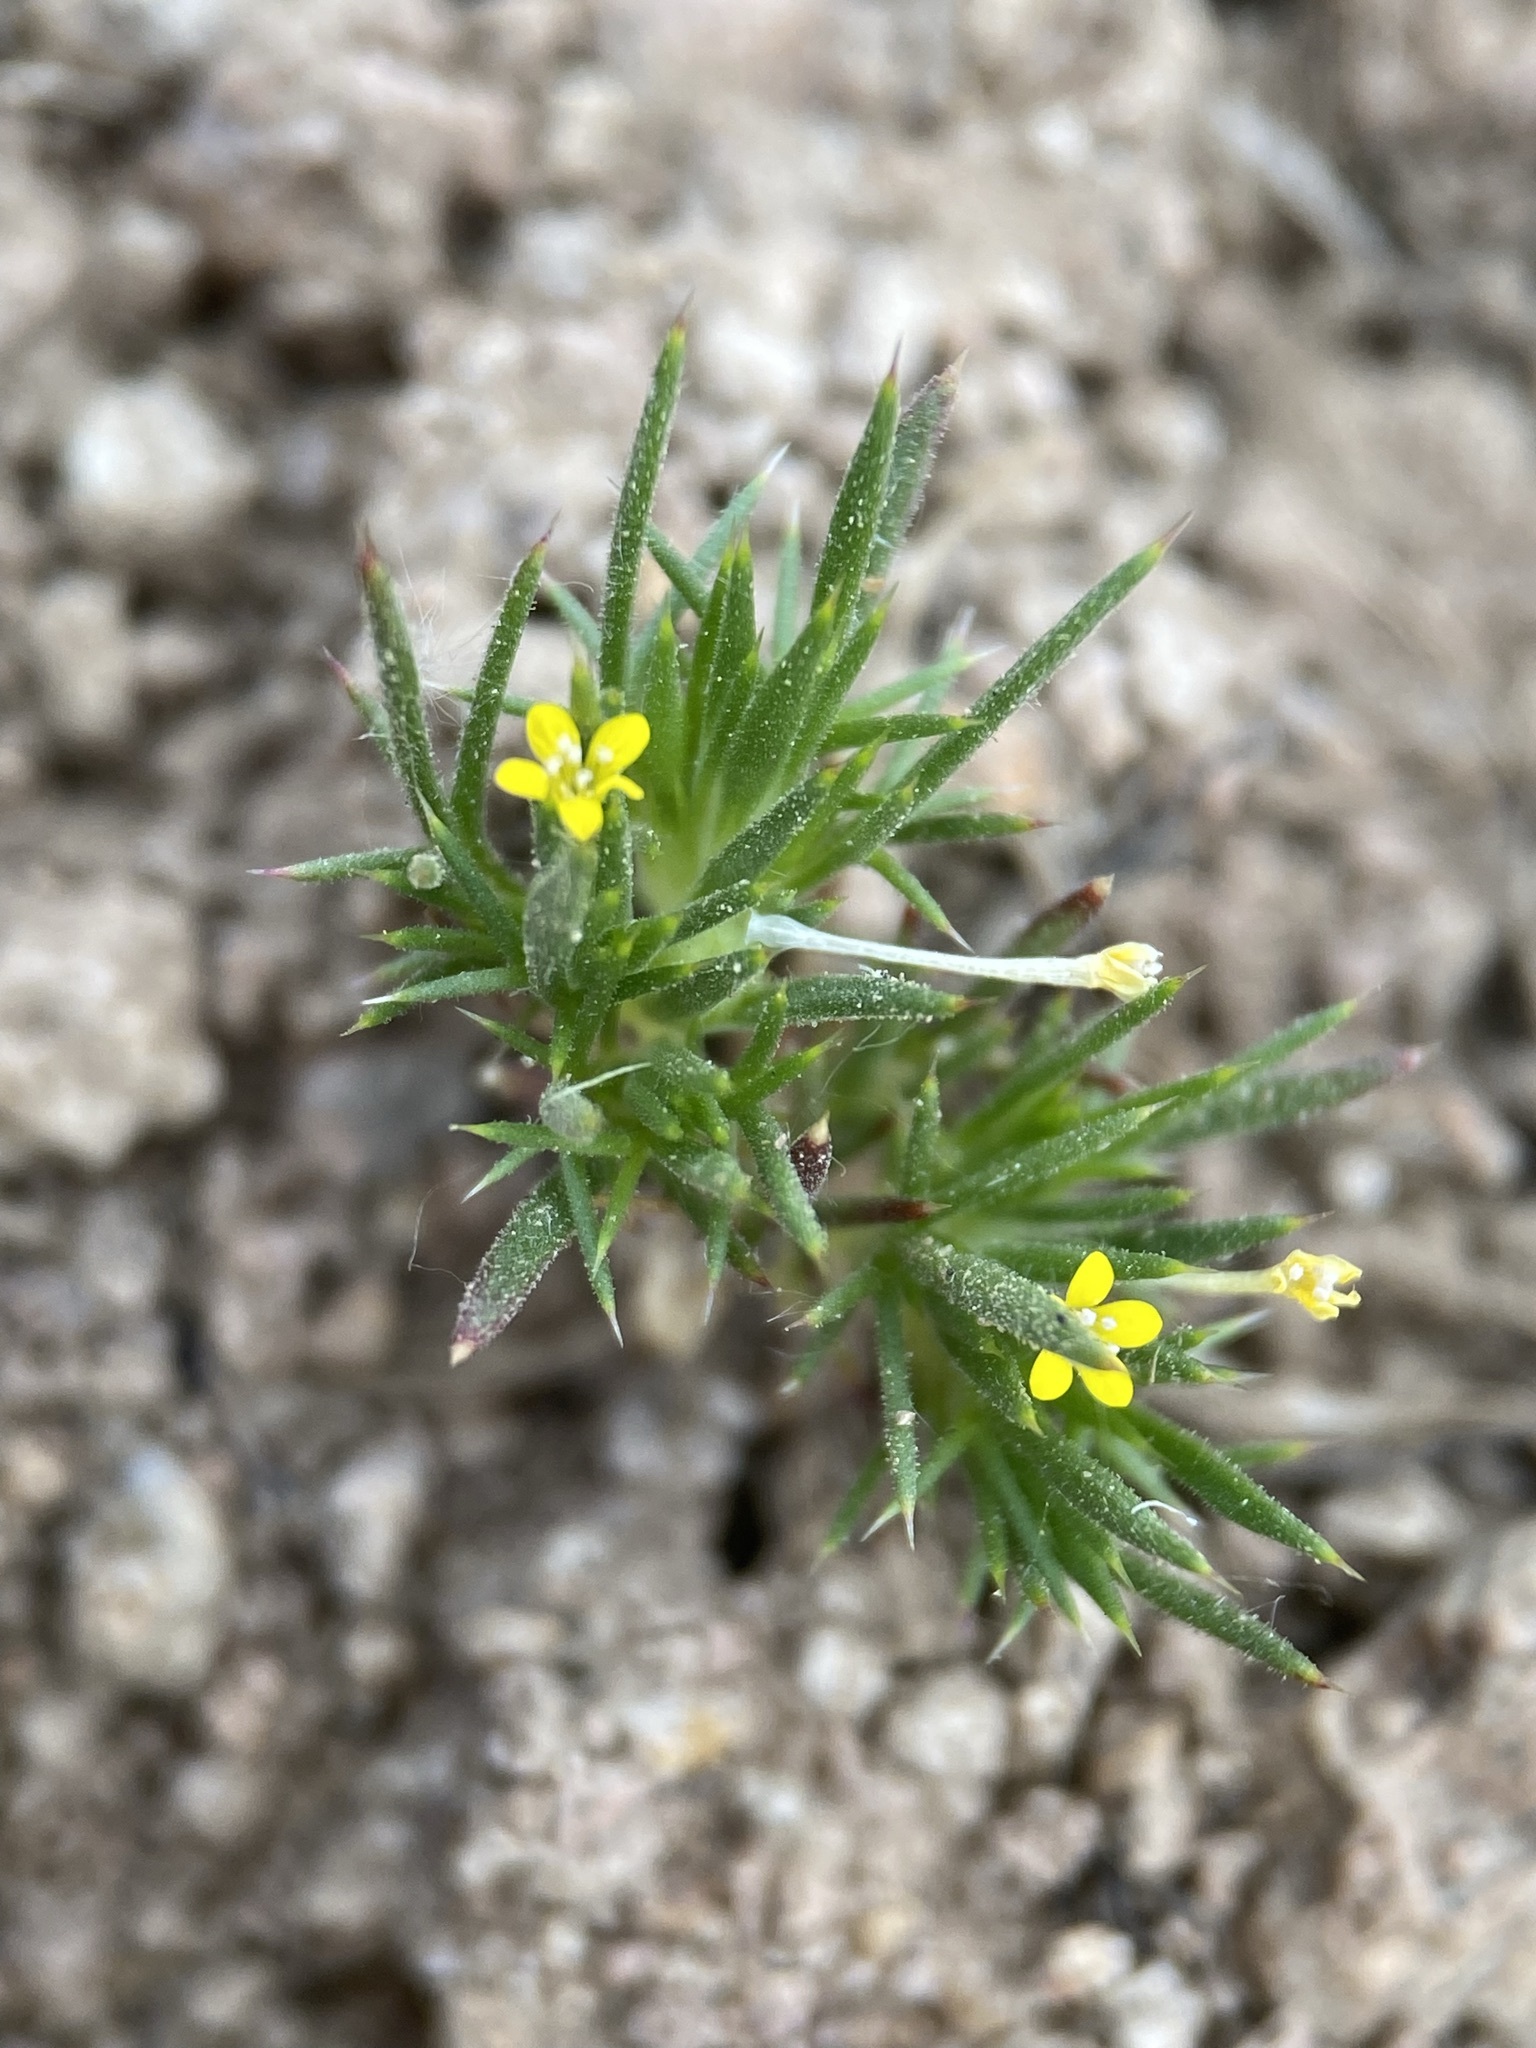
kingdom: Plantae
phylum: Tracheophyta
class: Magnoliopsida
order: Ericales
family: Polemoniaceae
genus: Navarretia
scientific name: Navarretia breweri
